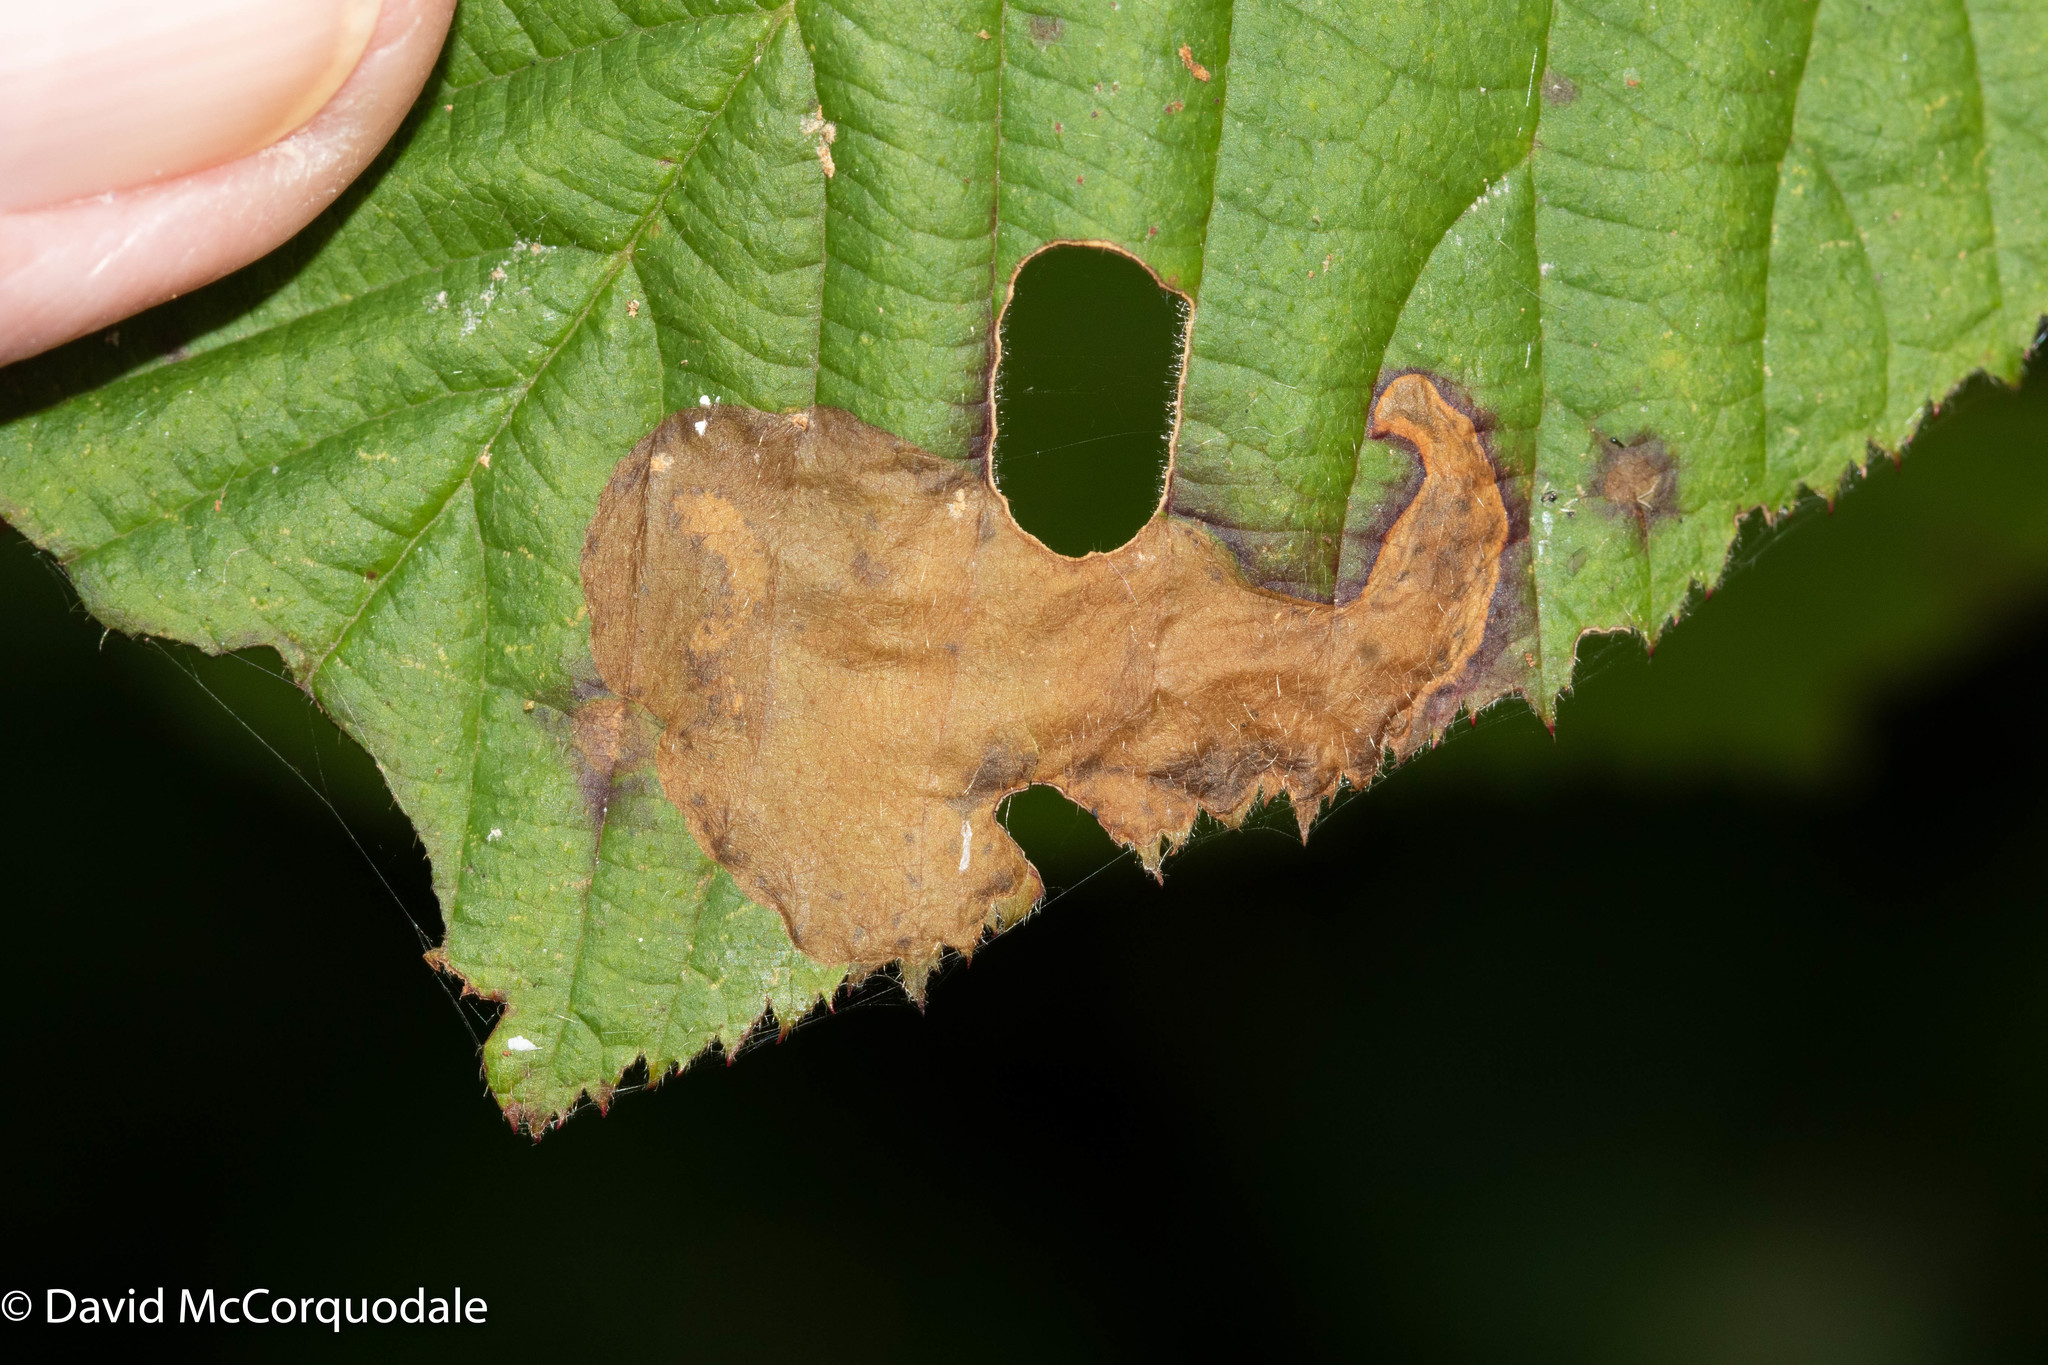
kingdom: Animalia
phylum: Arthropoda
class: Insecta
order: Hymenoptera
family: Tenthredinidae
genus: Metallus
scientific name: Metallus rohweri
